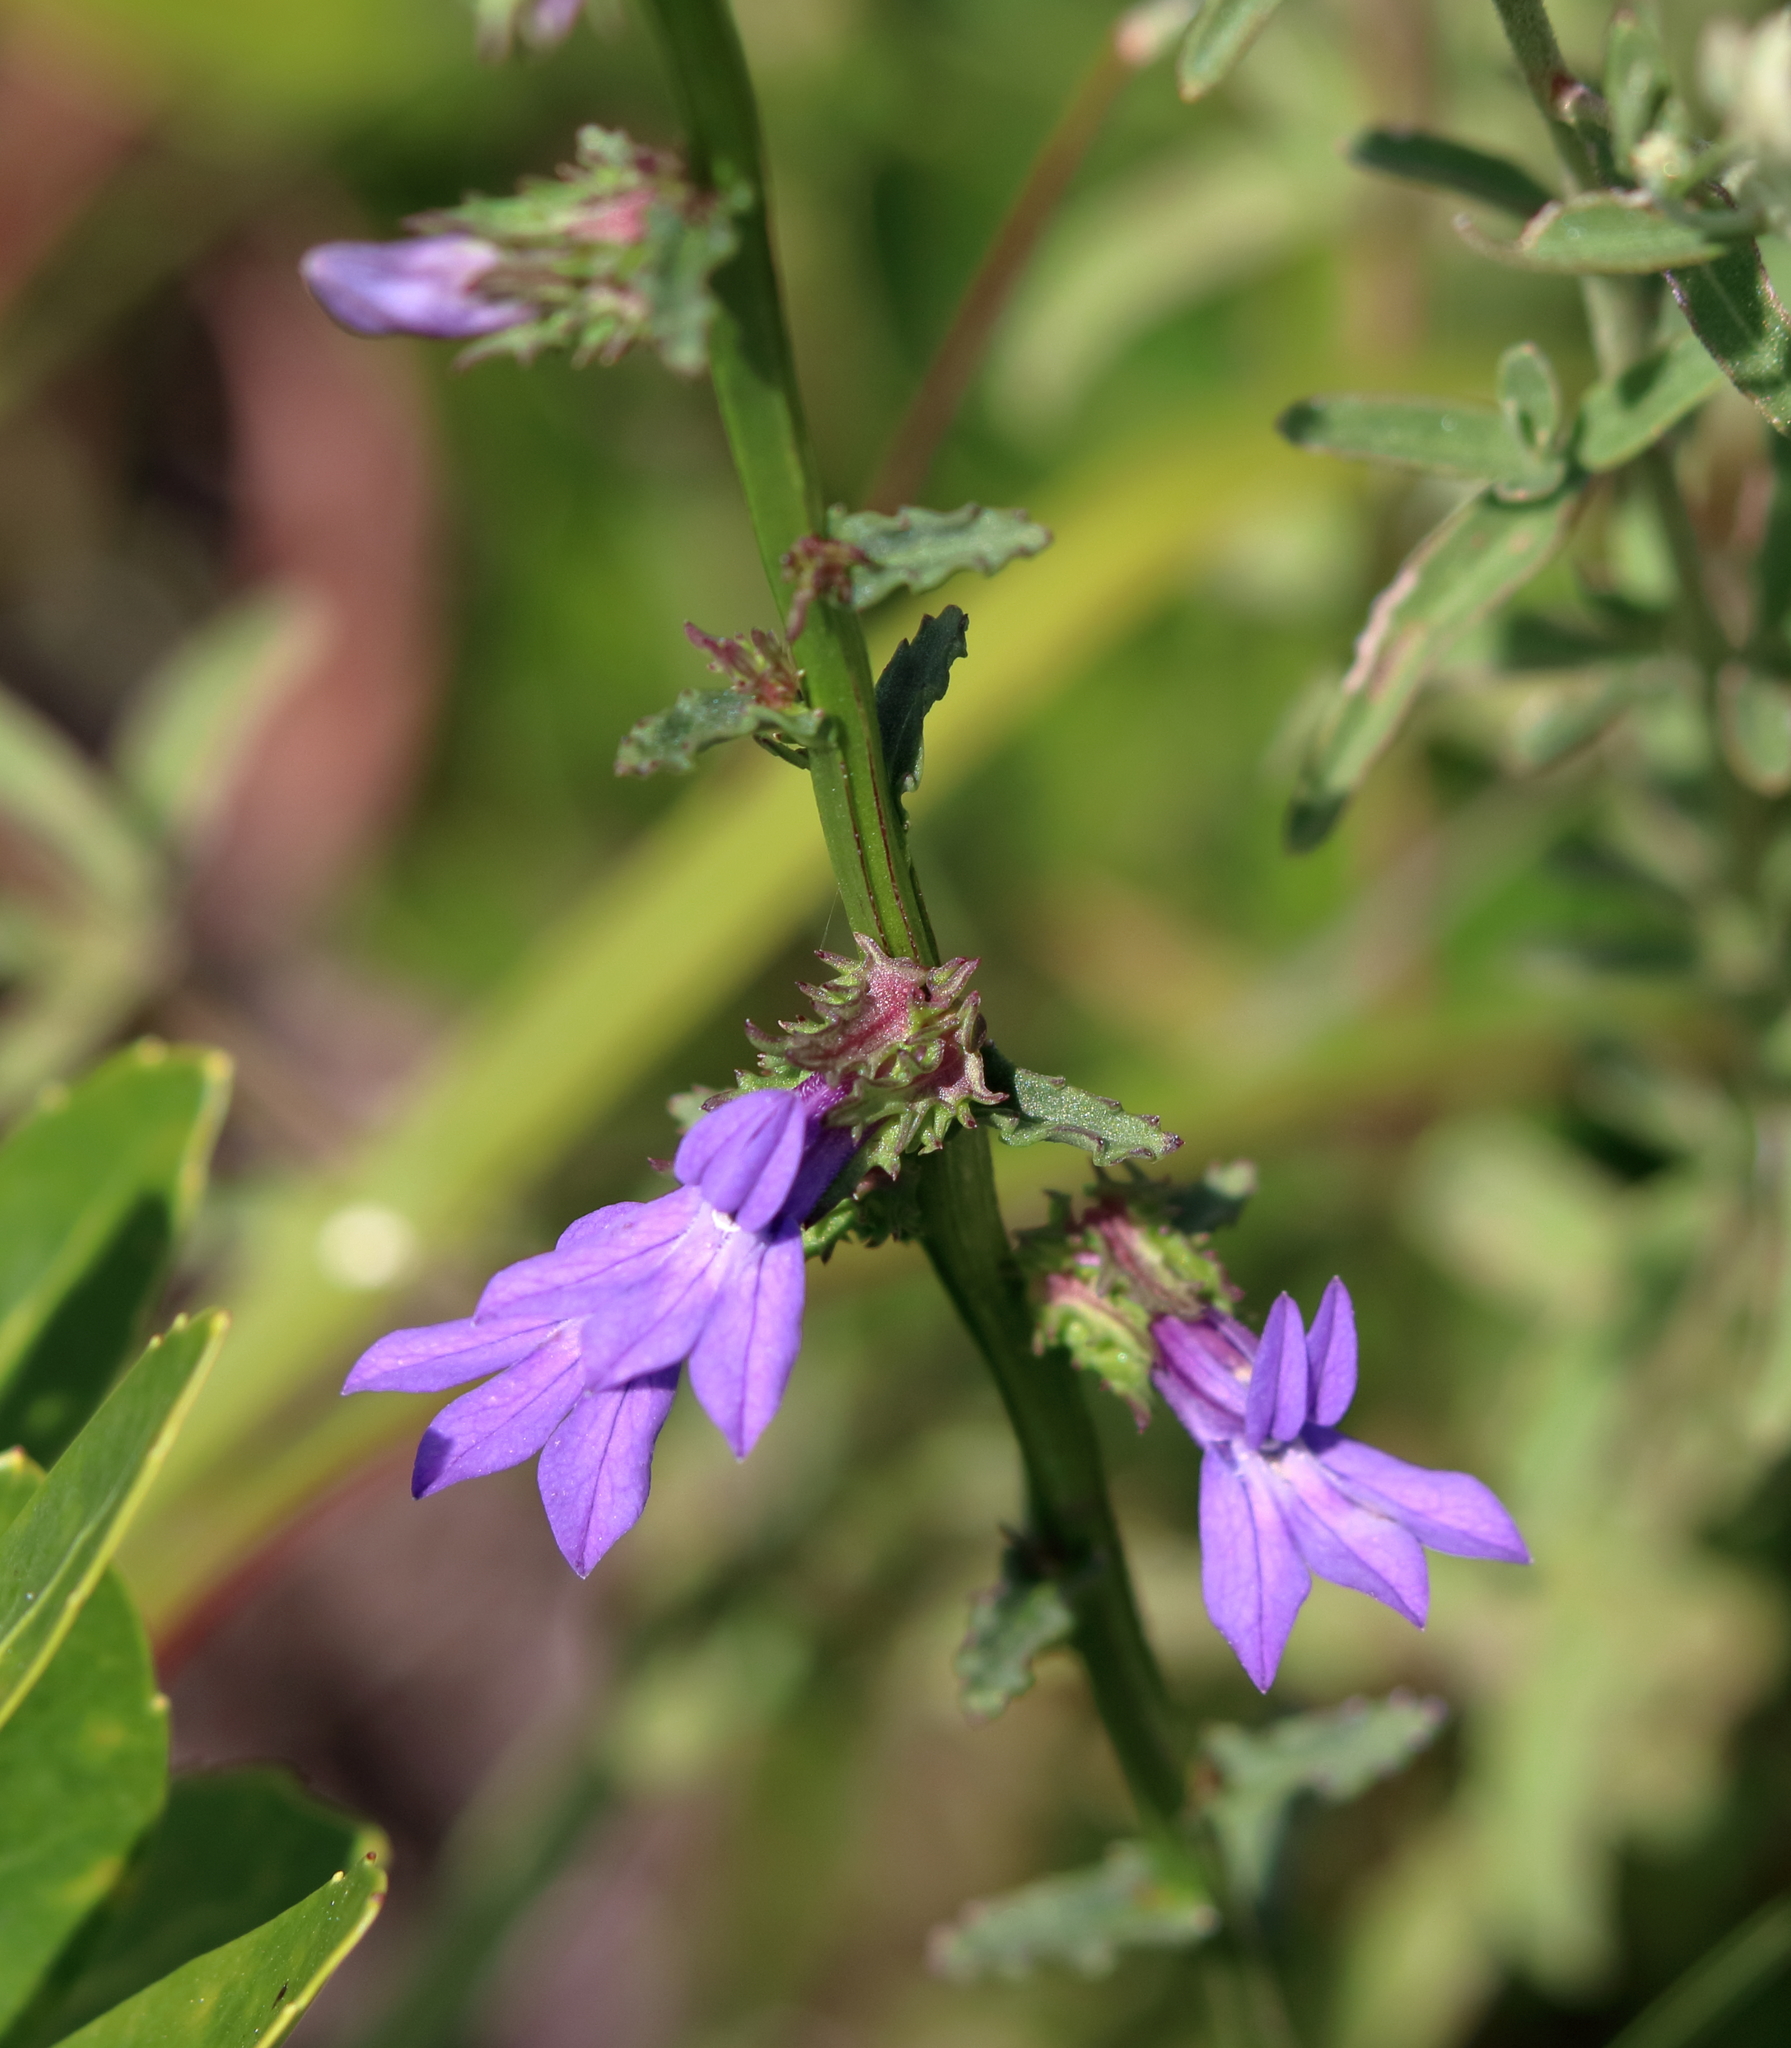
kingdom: Plantae
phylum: Tracheophyta
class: Magnoliopsida
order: Asterales
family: Campanulaceae
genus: Lobelia
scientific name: Lobelia brevifolia
